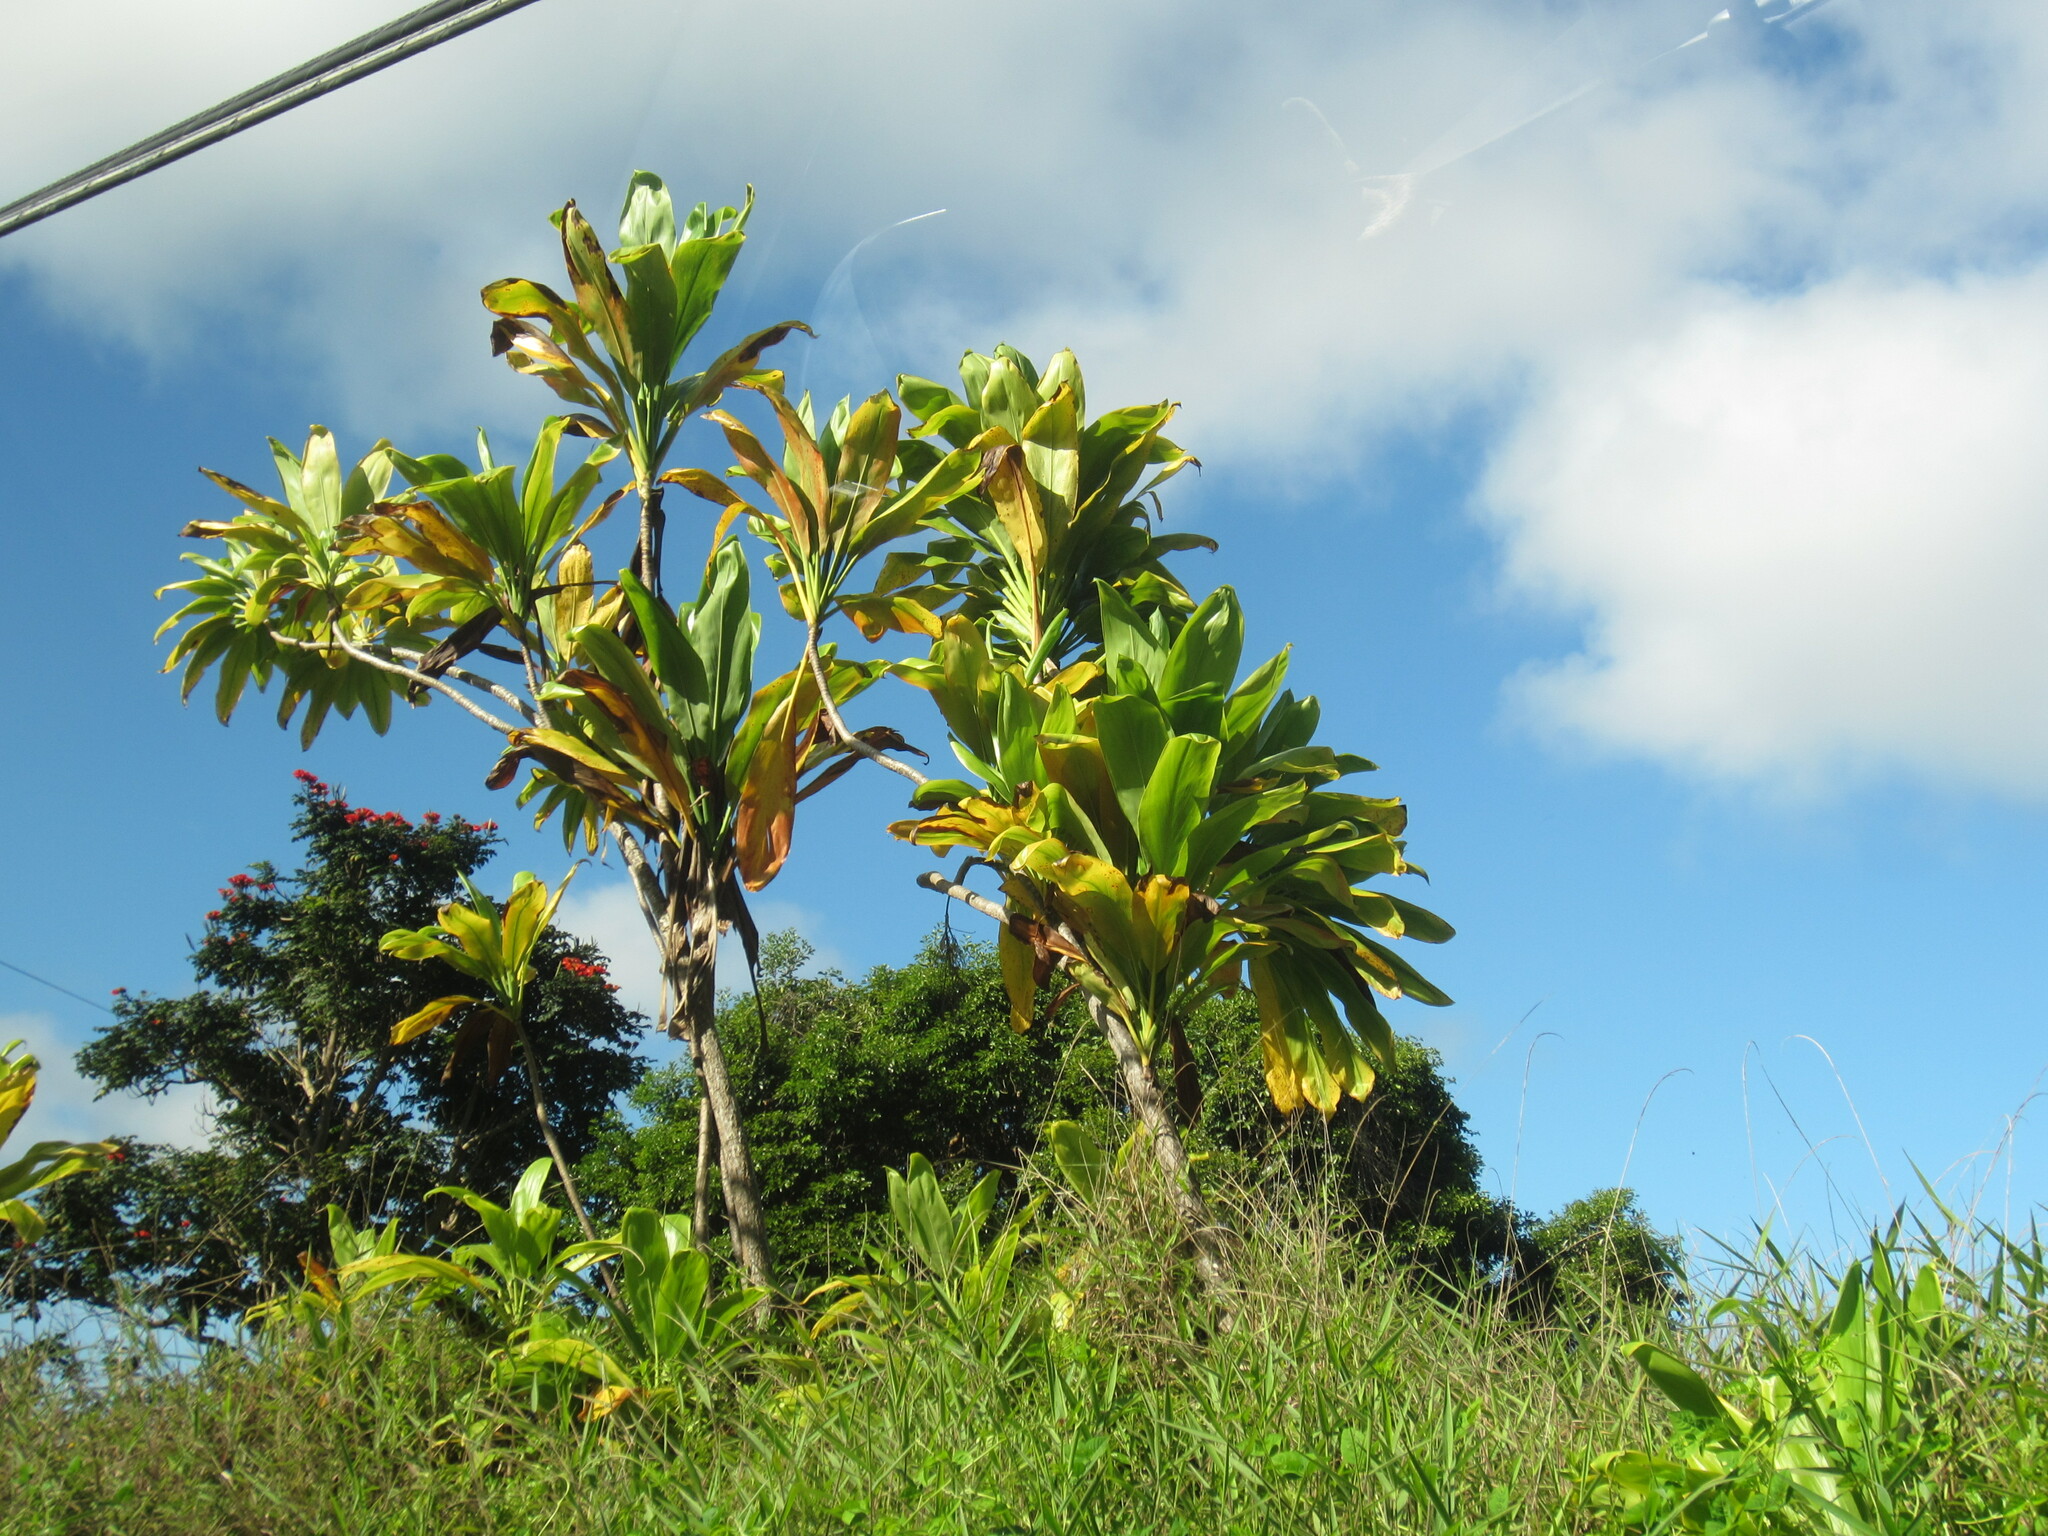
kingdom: Plantae
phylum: Tracheophyta
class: Liliopsida
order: Asparagales
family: Asparagaceae
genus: Cordyline
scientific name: Cordyline fruticosa
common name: Good-luck-plant
